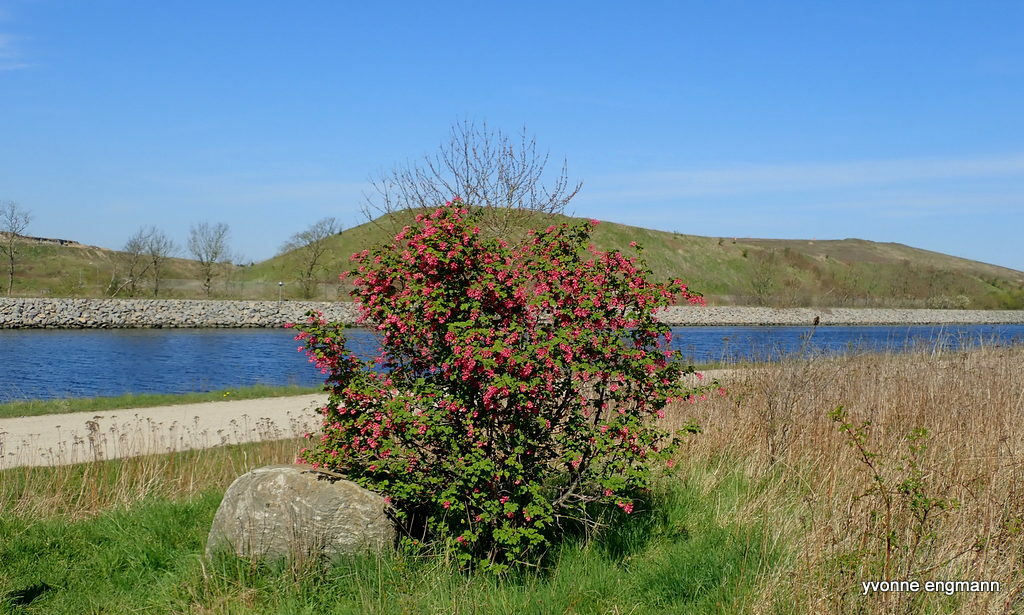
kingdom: Plantae
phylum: Tracheophyta
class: Magnoliopsida
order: Saxifragales
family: Grossulariaceae
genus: Ribes
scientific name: Ribes sanguineum
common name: Flowering currant
